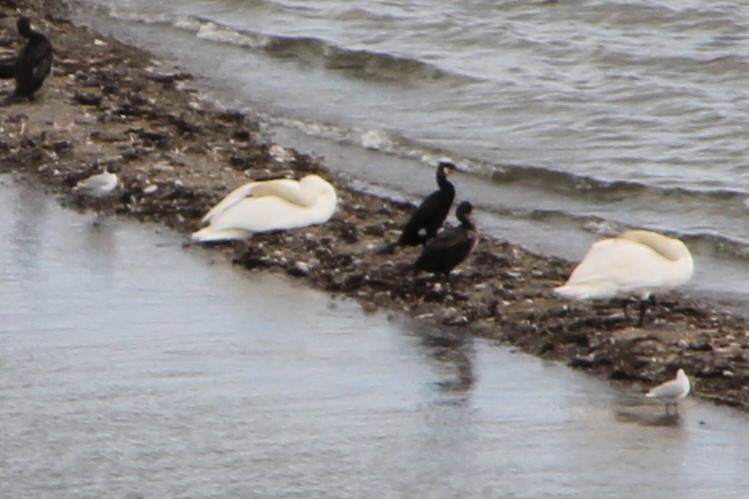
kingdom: Animalia
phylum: Chordata
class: Aves
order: Suliformes
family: Phalacrocoracidae
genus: Phalacrocorax
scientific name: Phalacrocorax carbo
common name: Great cormorant
